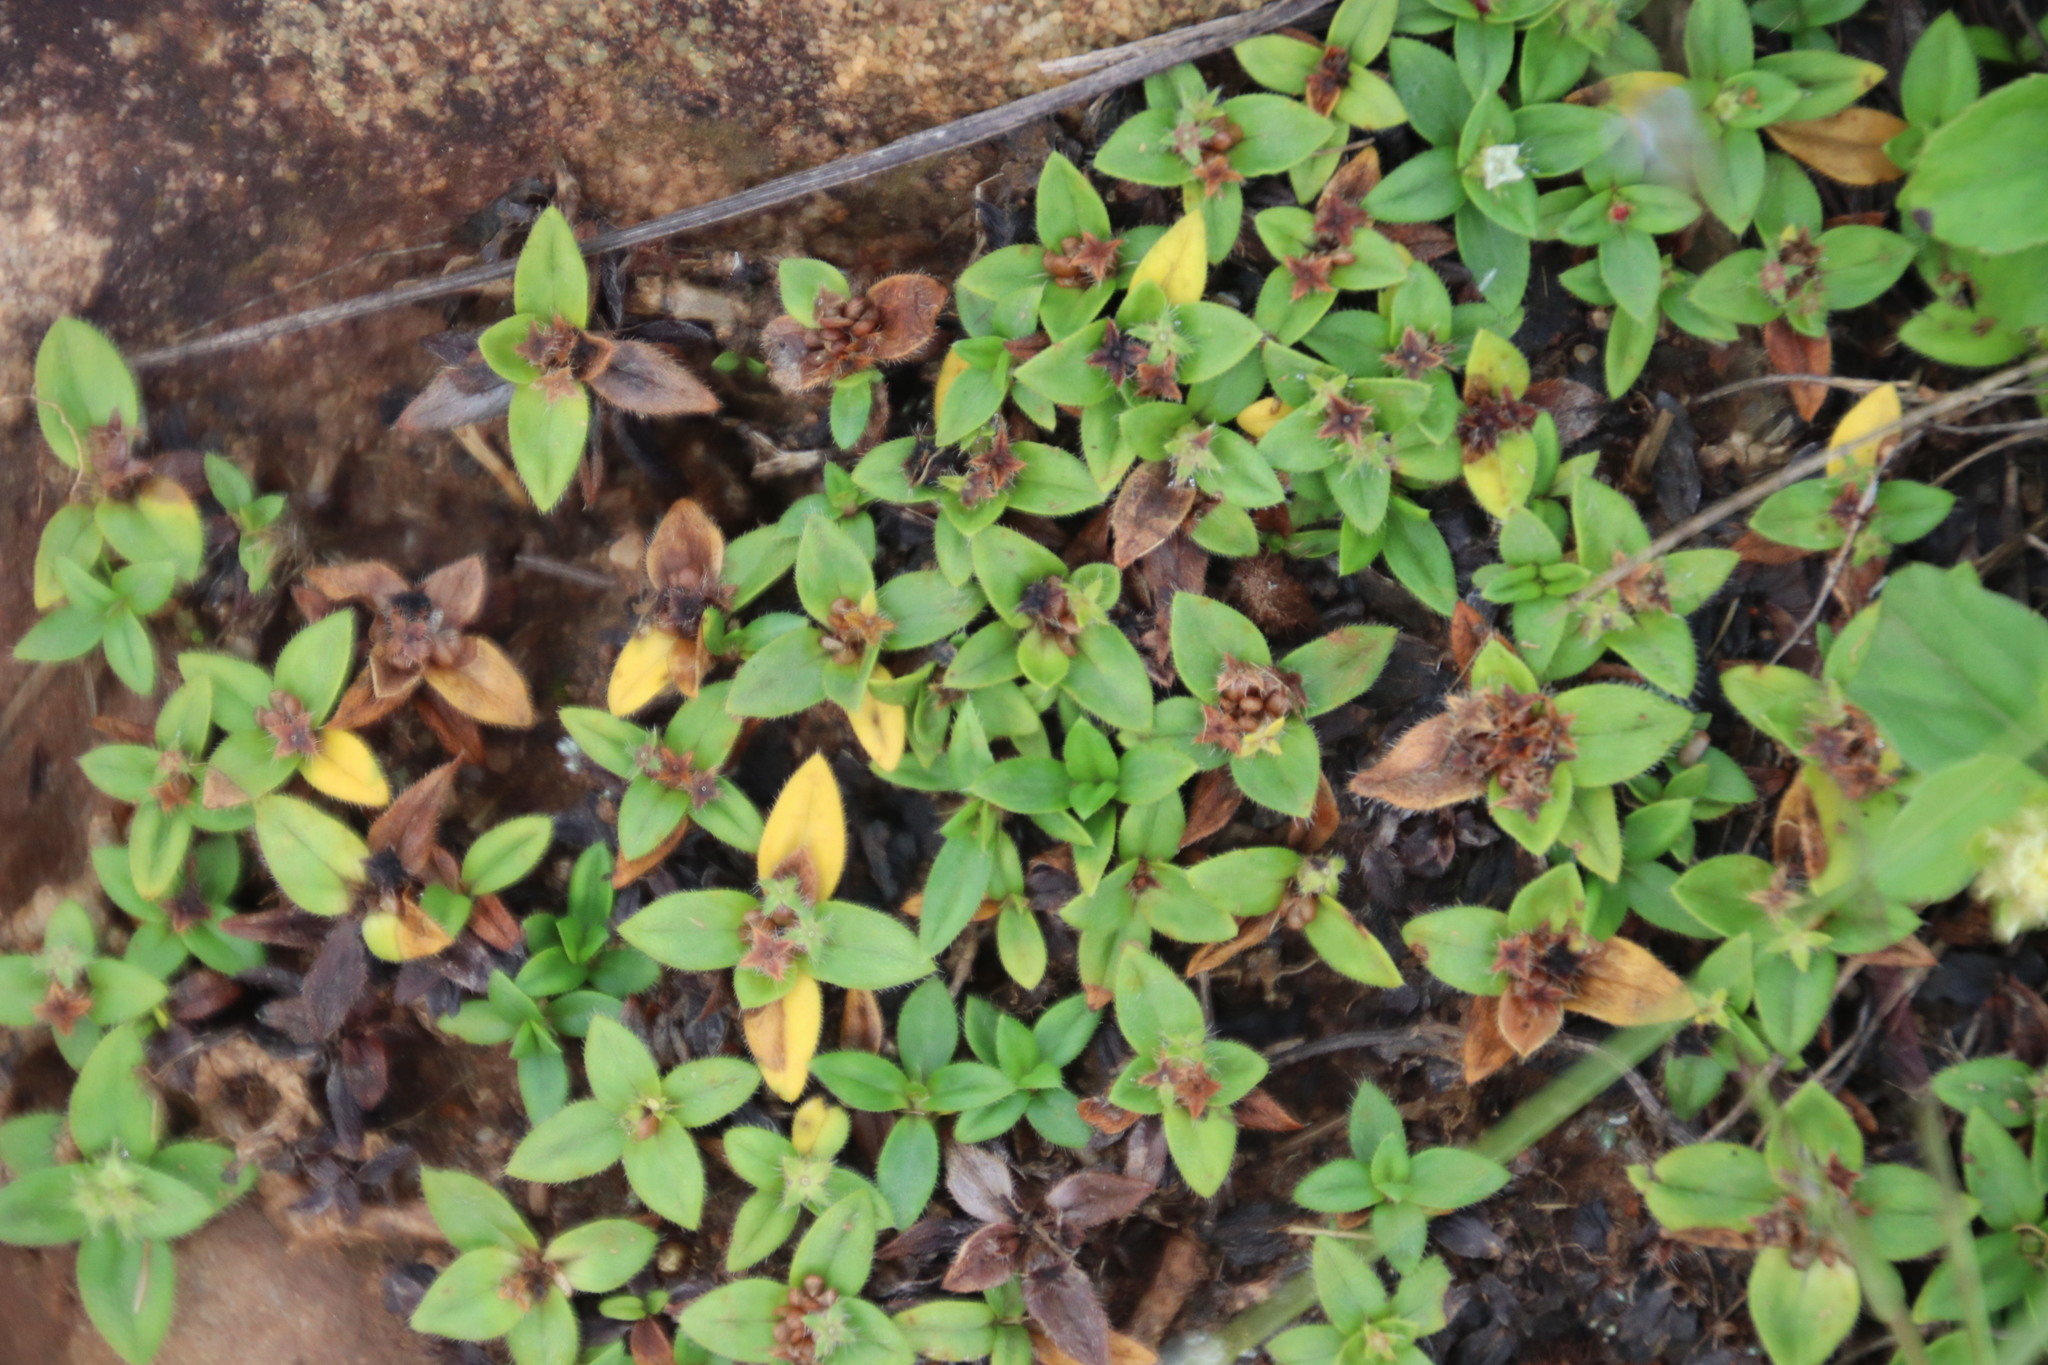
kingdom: Plantae
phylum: Tracheophyta
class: Magnoliopsida
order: Gentianales
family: Rubiaceae
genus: Richardia
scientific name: Richardia brasiliensis
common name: Tropical mexican clover
